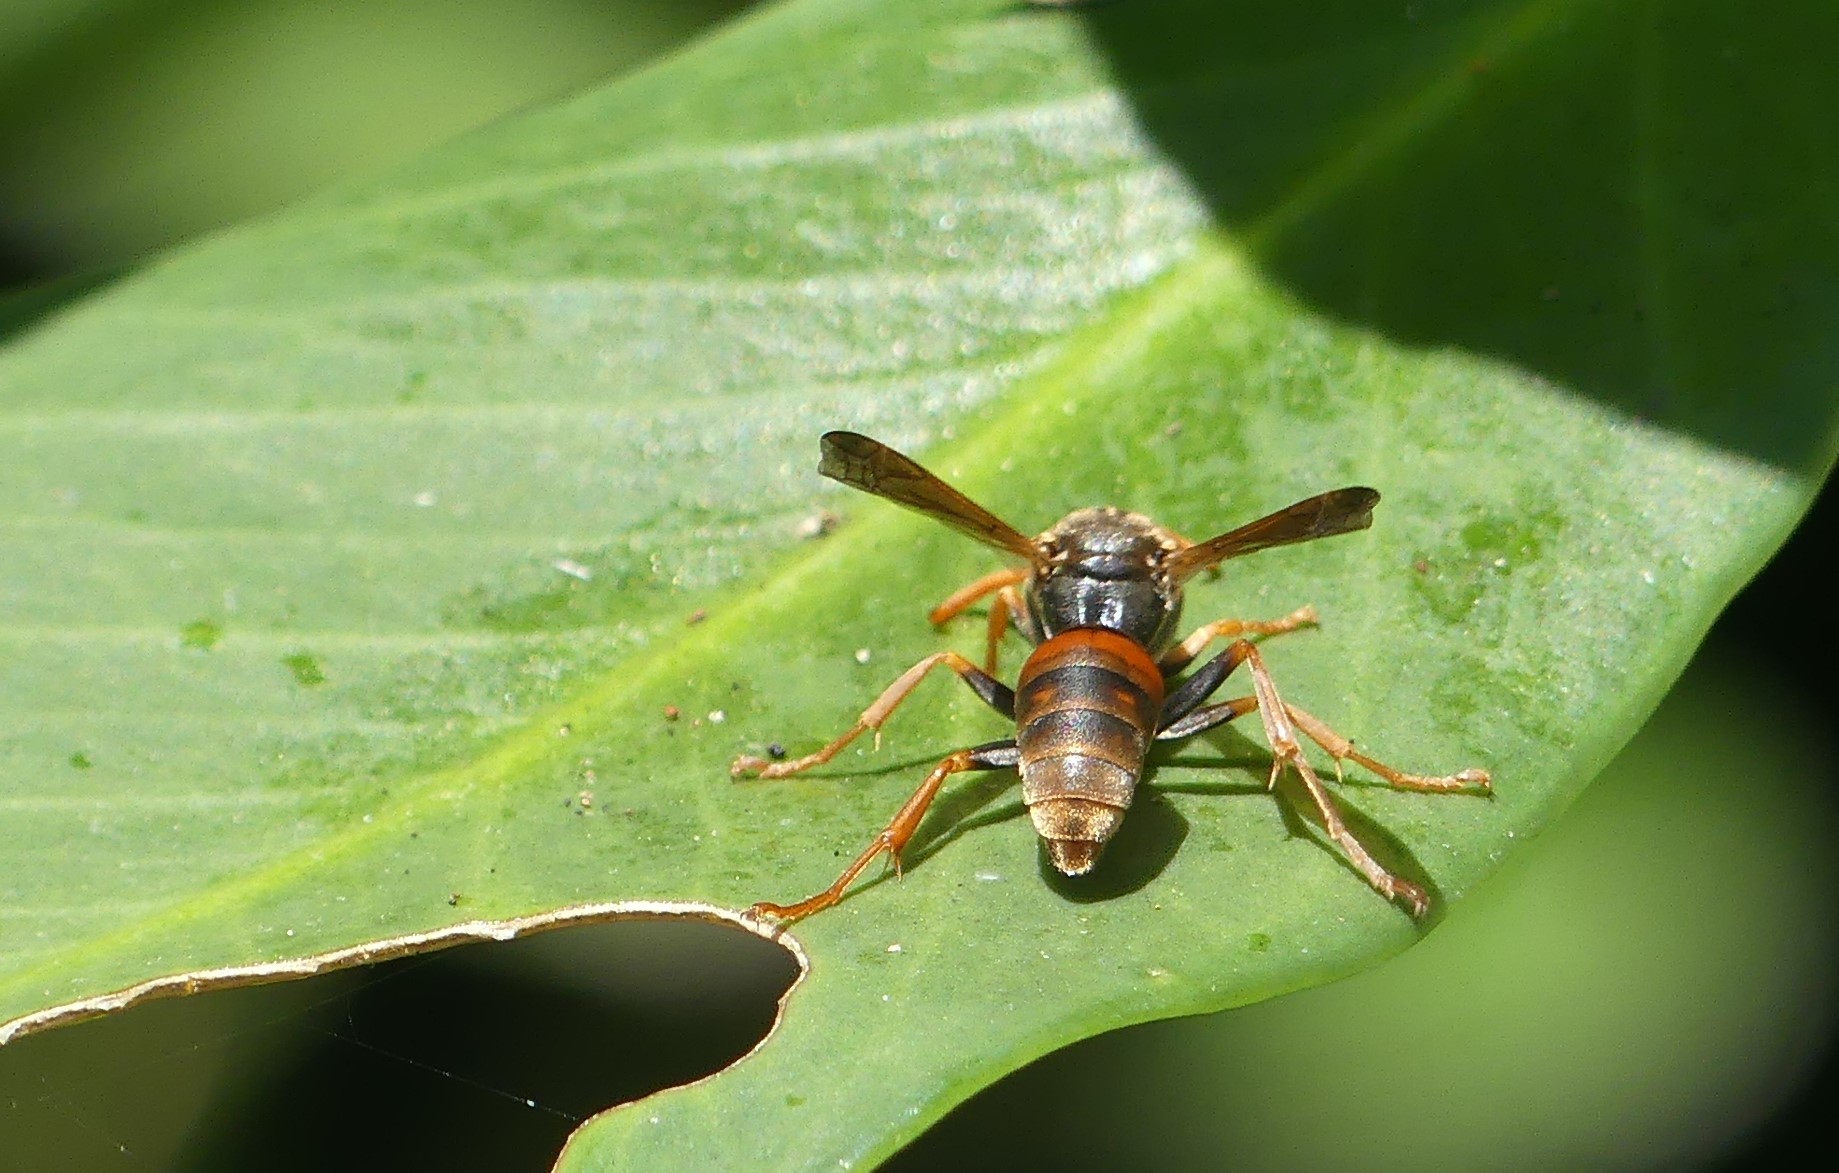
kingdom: Animalia
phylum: Arthropoda
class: Insecta
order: Hymenoptera
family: Eumenidae
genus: Polistes
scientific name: Polistes humilis
